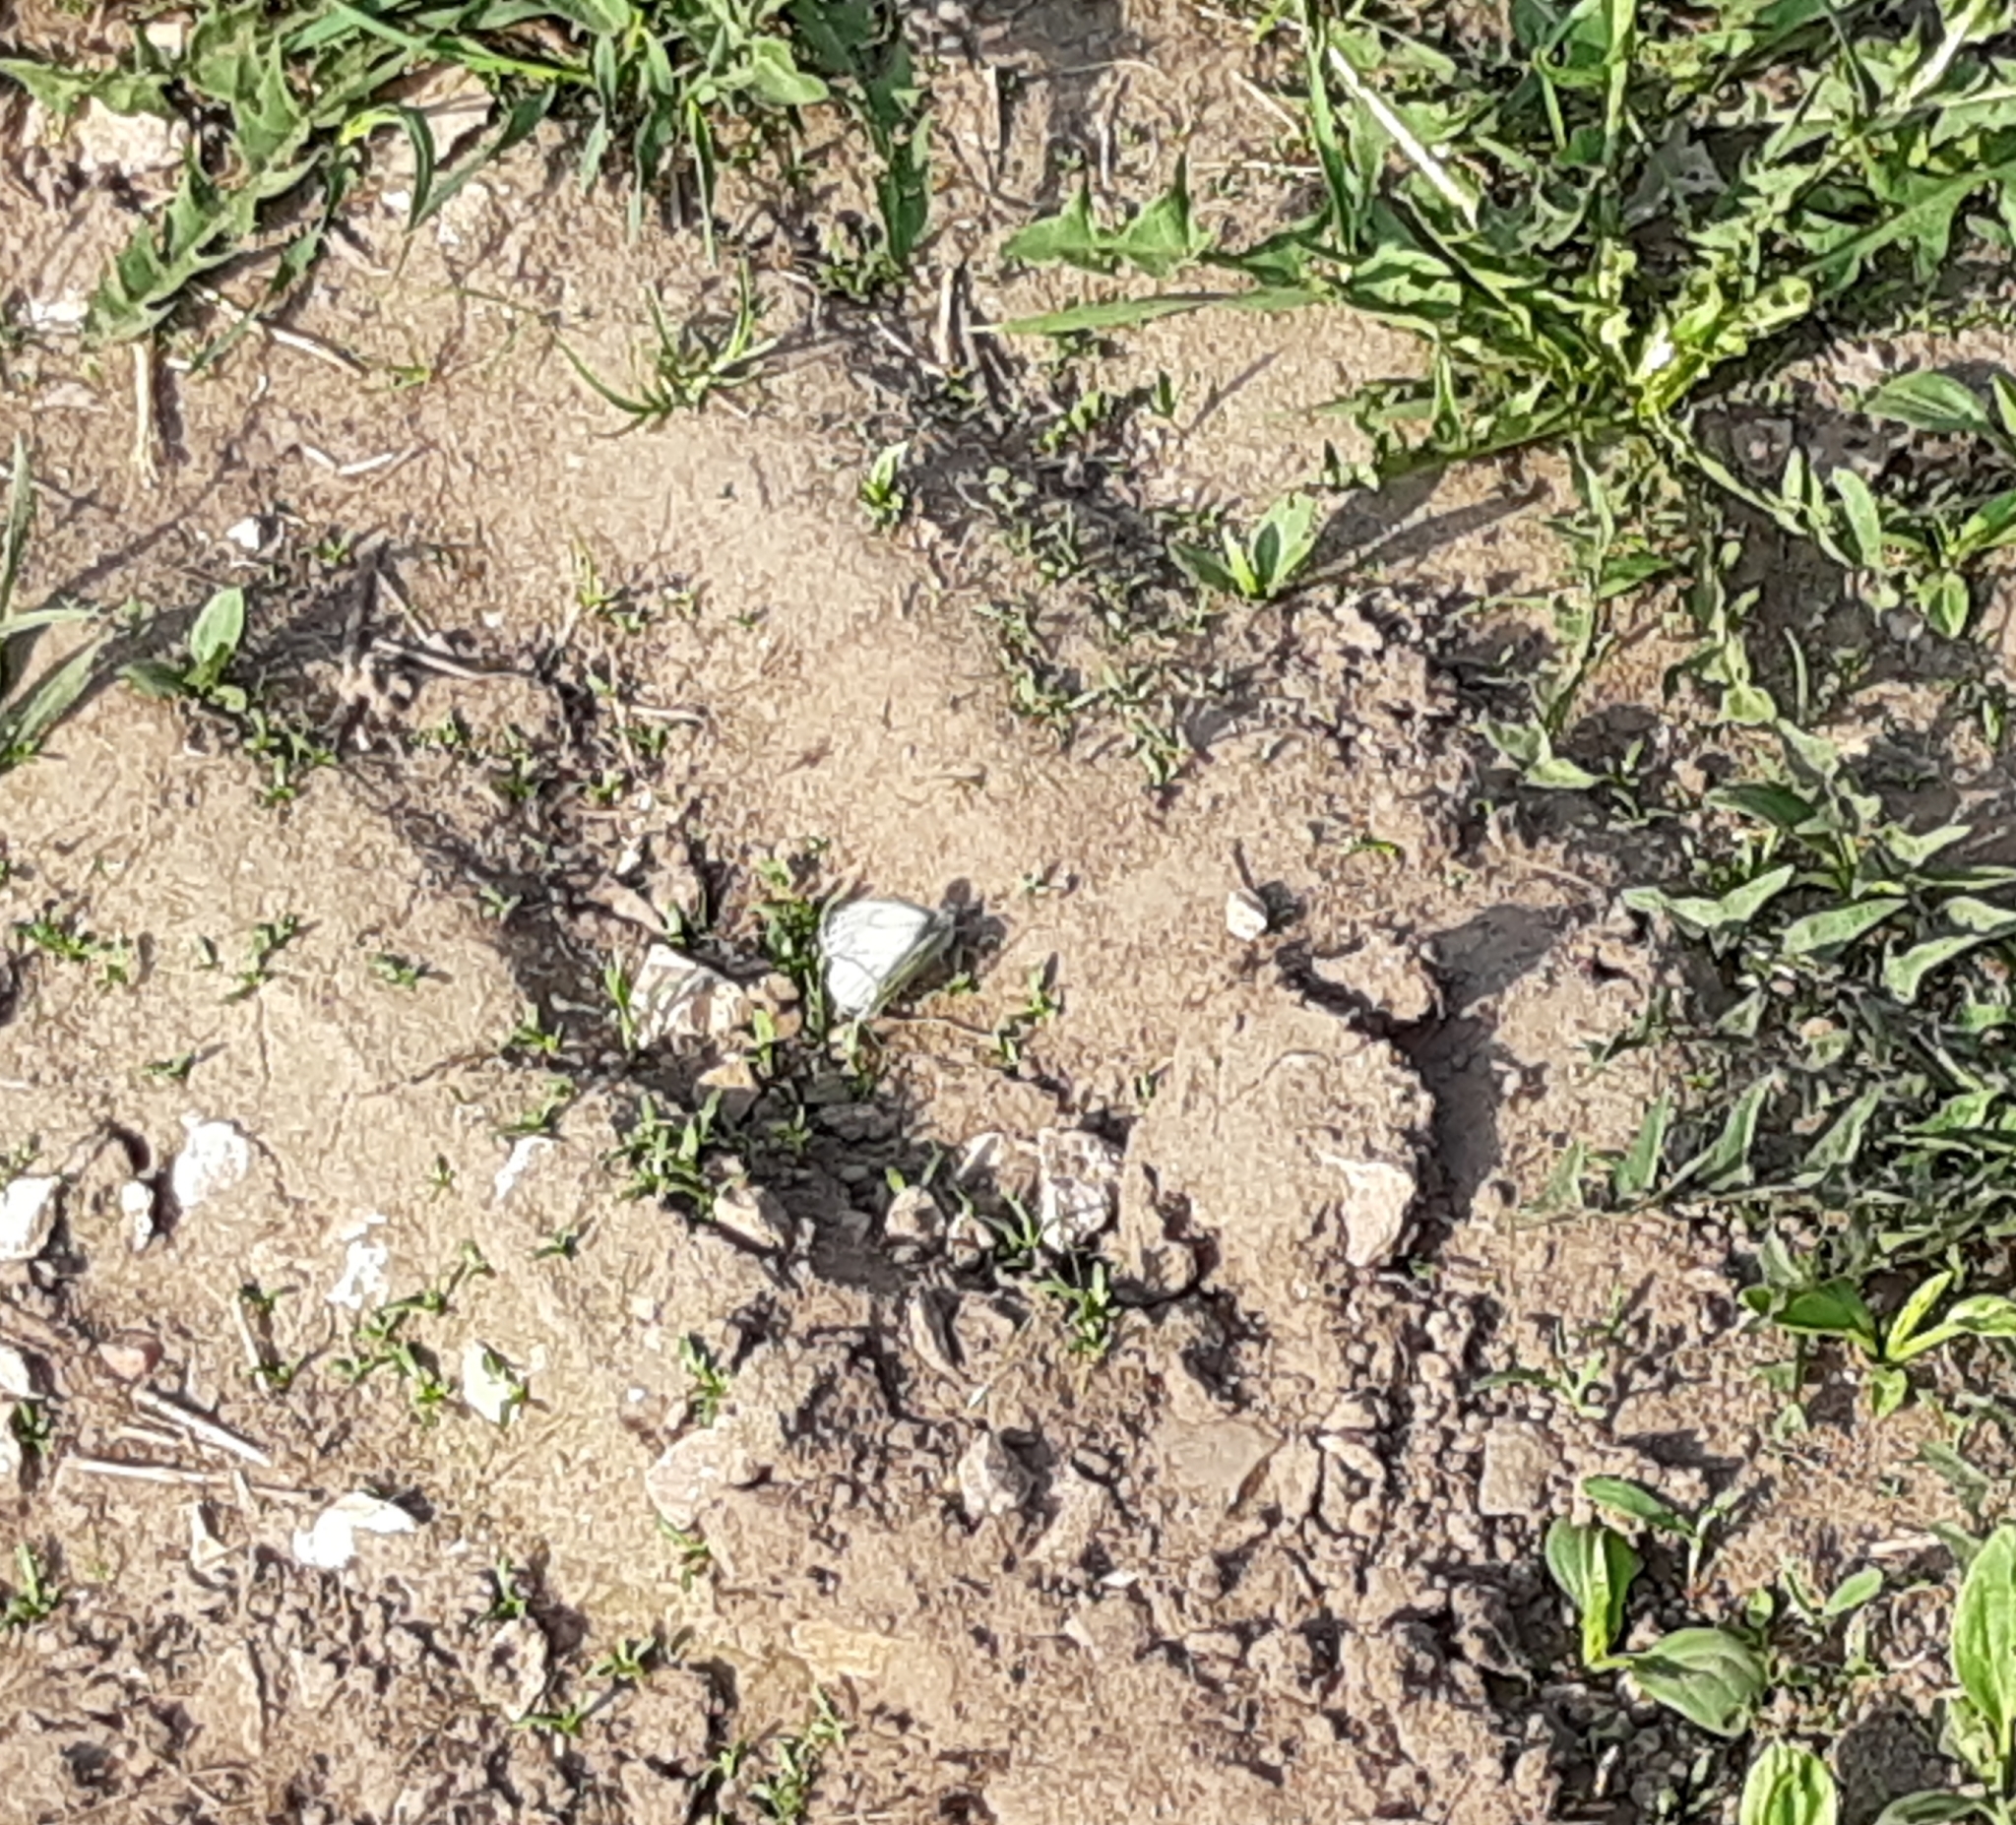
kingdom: Animalia
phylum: Arthropoda
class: Insecta
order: Lepidoptera
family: Pieridae
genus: Pieris
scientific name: Pieris napi
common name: Green-veined white
